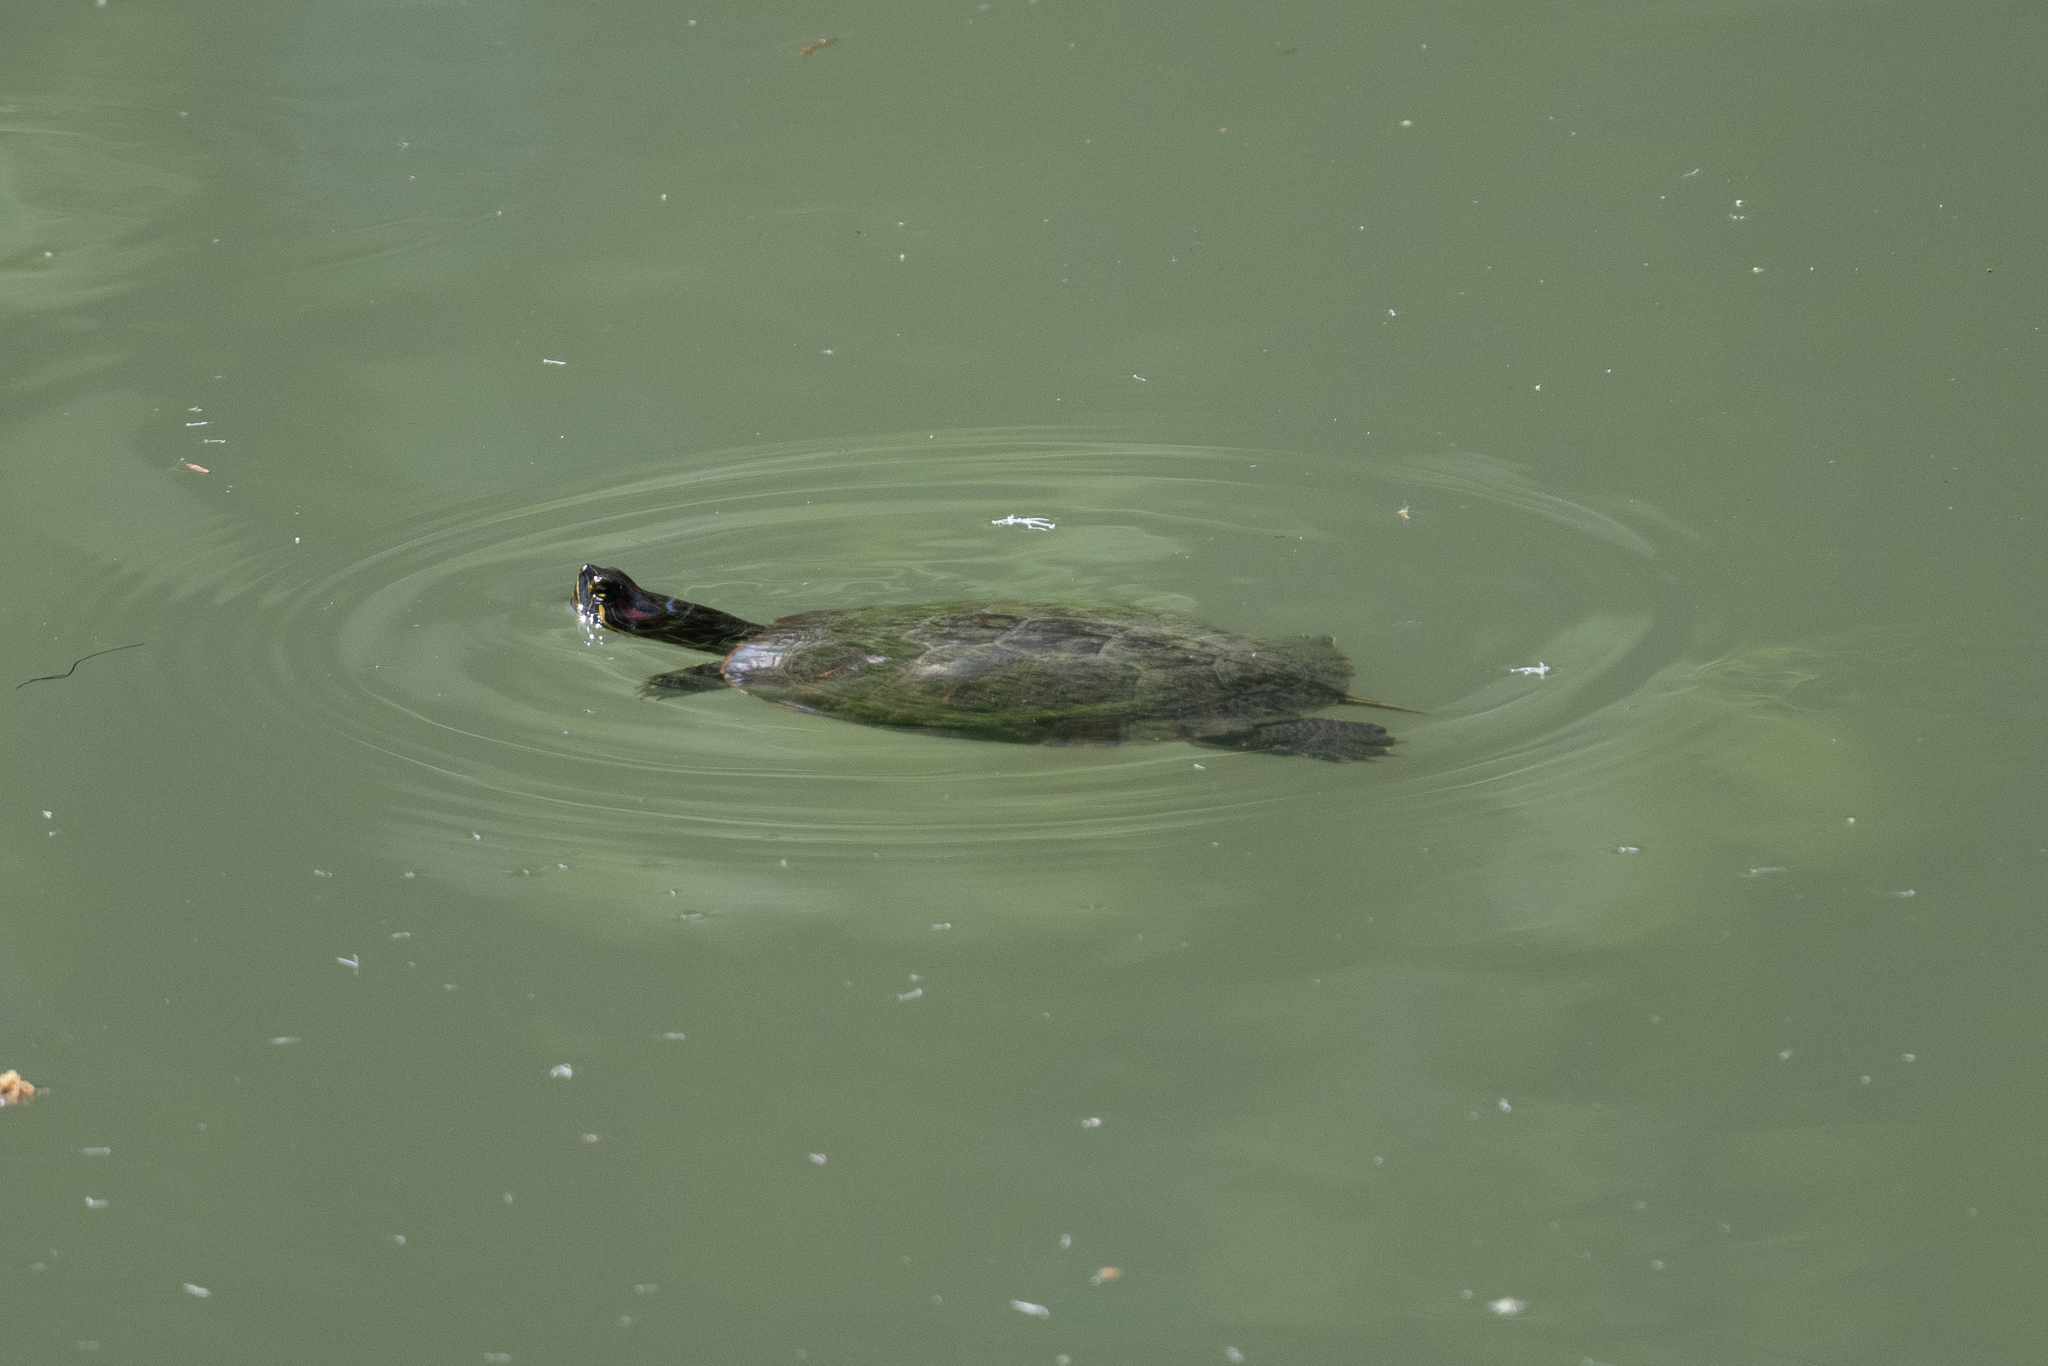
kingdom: Animalia
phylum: Chordata
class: Testudines
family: Emydidae
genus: Trachemys
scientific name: Trachemys scripta
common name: Slider
